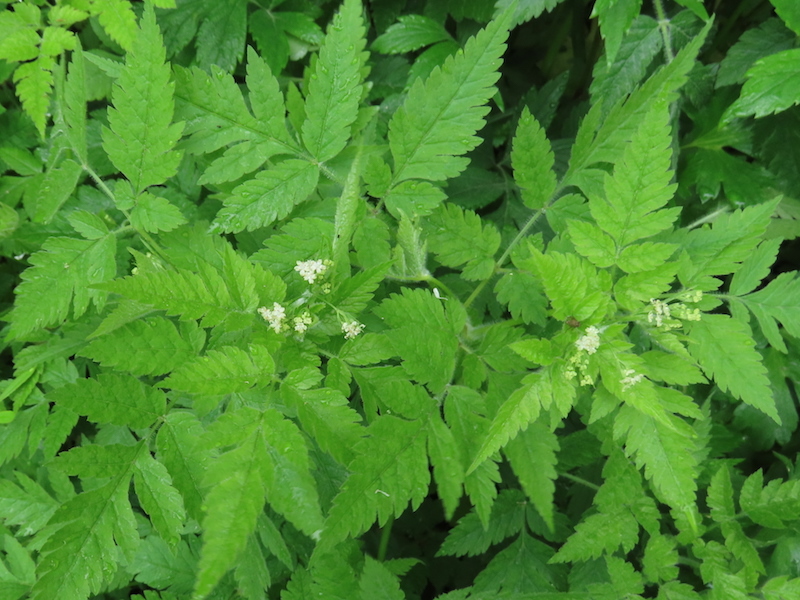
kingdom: Plantae
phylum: Tracheophyta
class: Magnoliopsida
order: Apiales
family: Apiaceae
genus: Osmorhiza
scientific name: Osmorhiza claytonii
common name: Hairy sweet cicely
